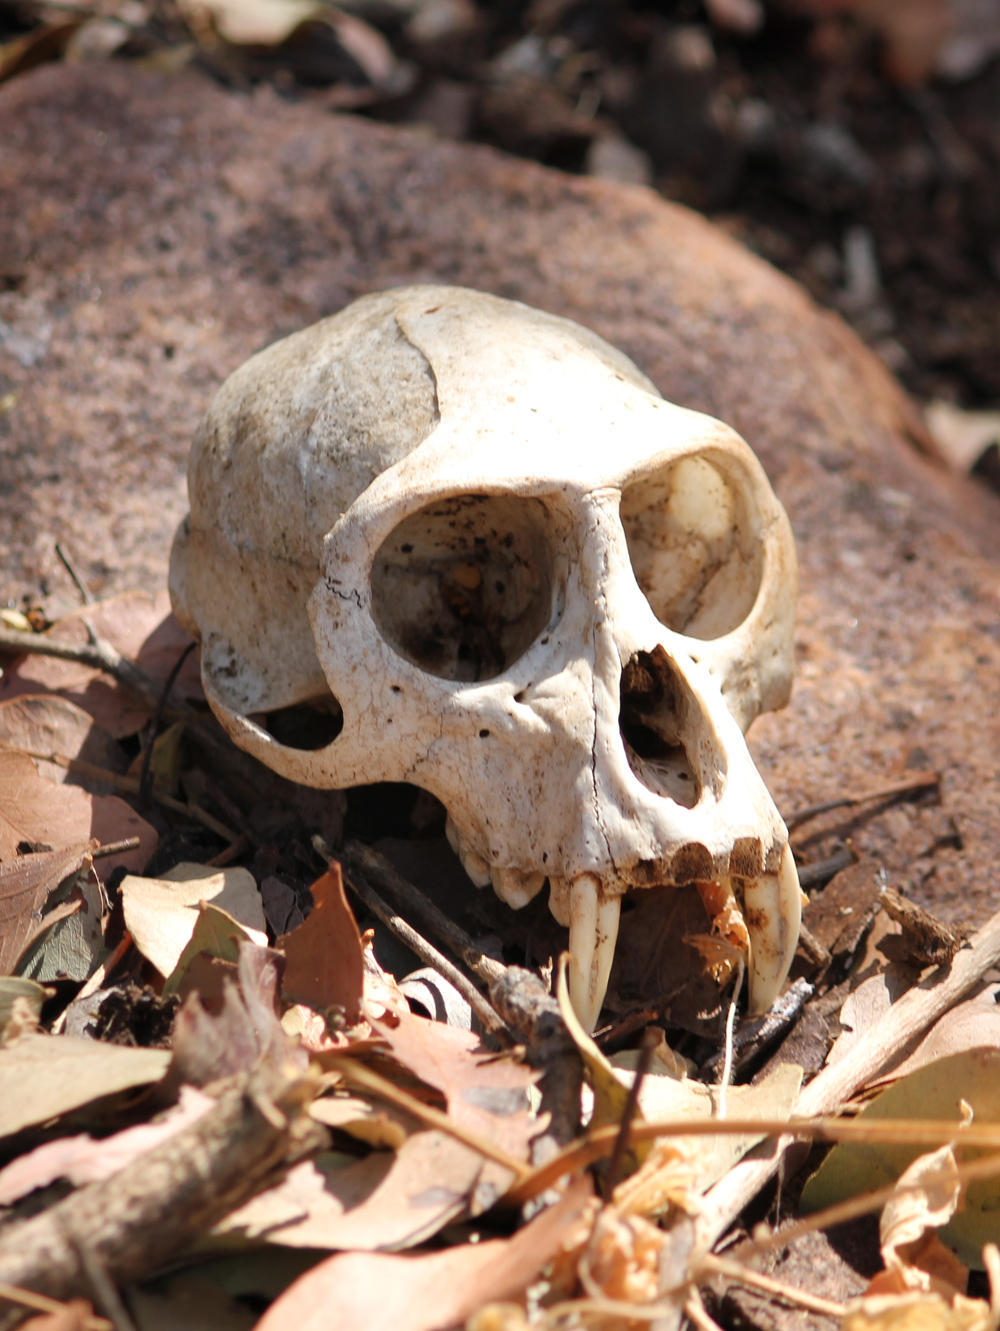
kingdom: Animalia
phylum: Chordata
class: Mammalia
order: Primates
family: Cercopithecidae
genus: Chlorocebus
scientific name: Chlorocebus pygerythrus
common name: Vervet monkey
